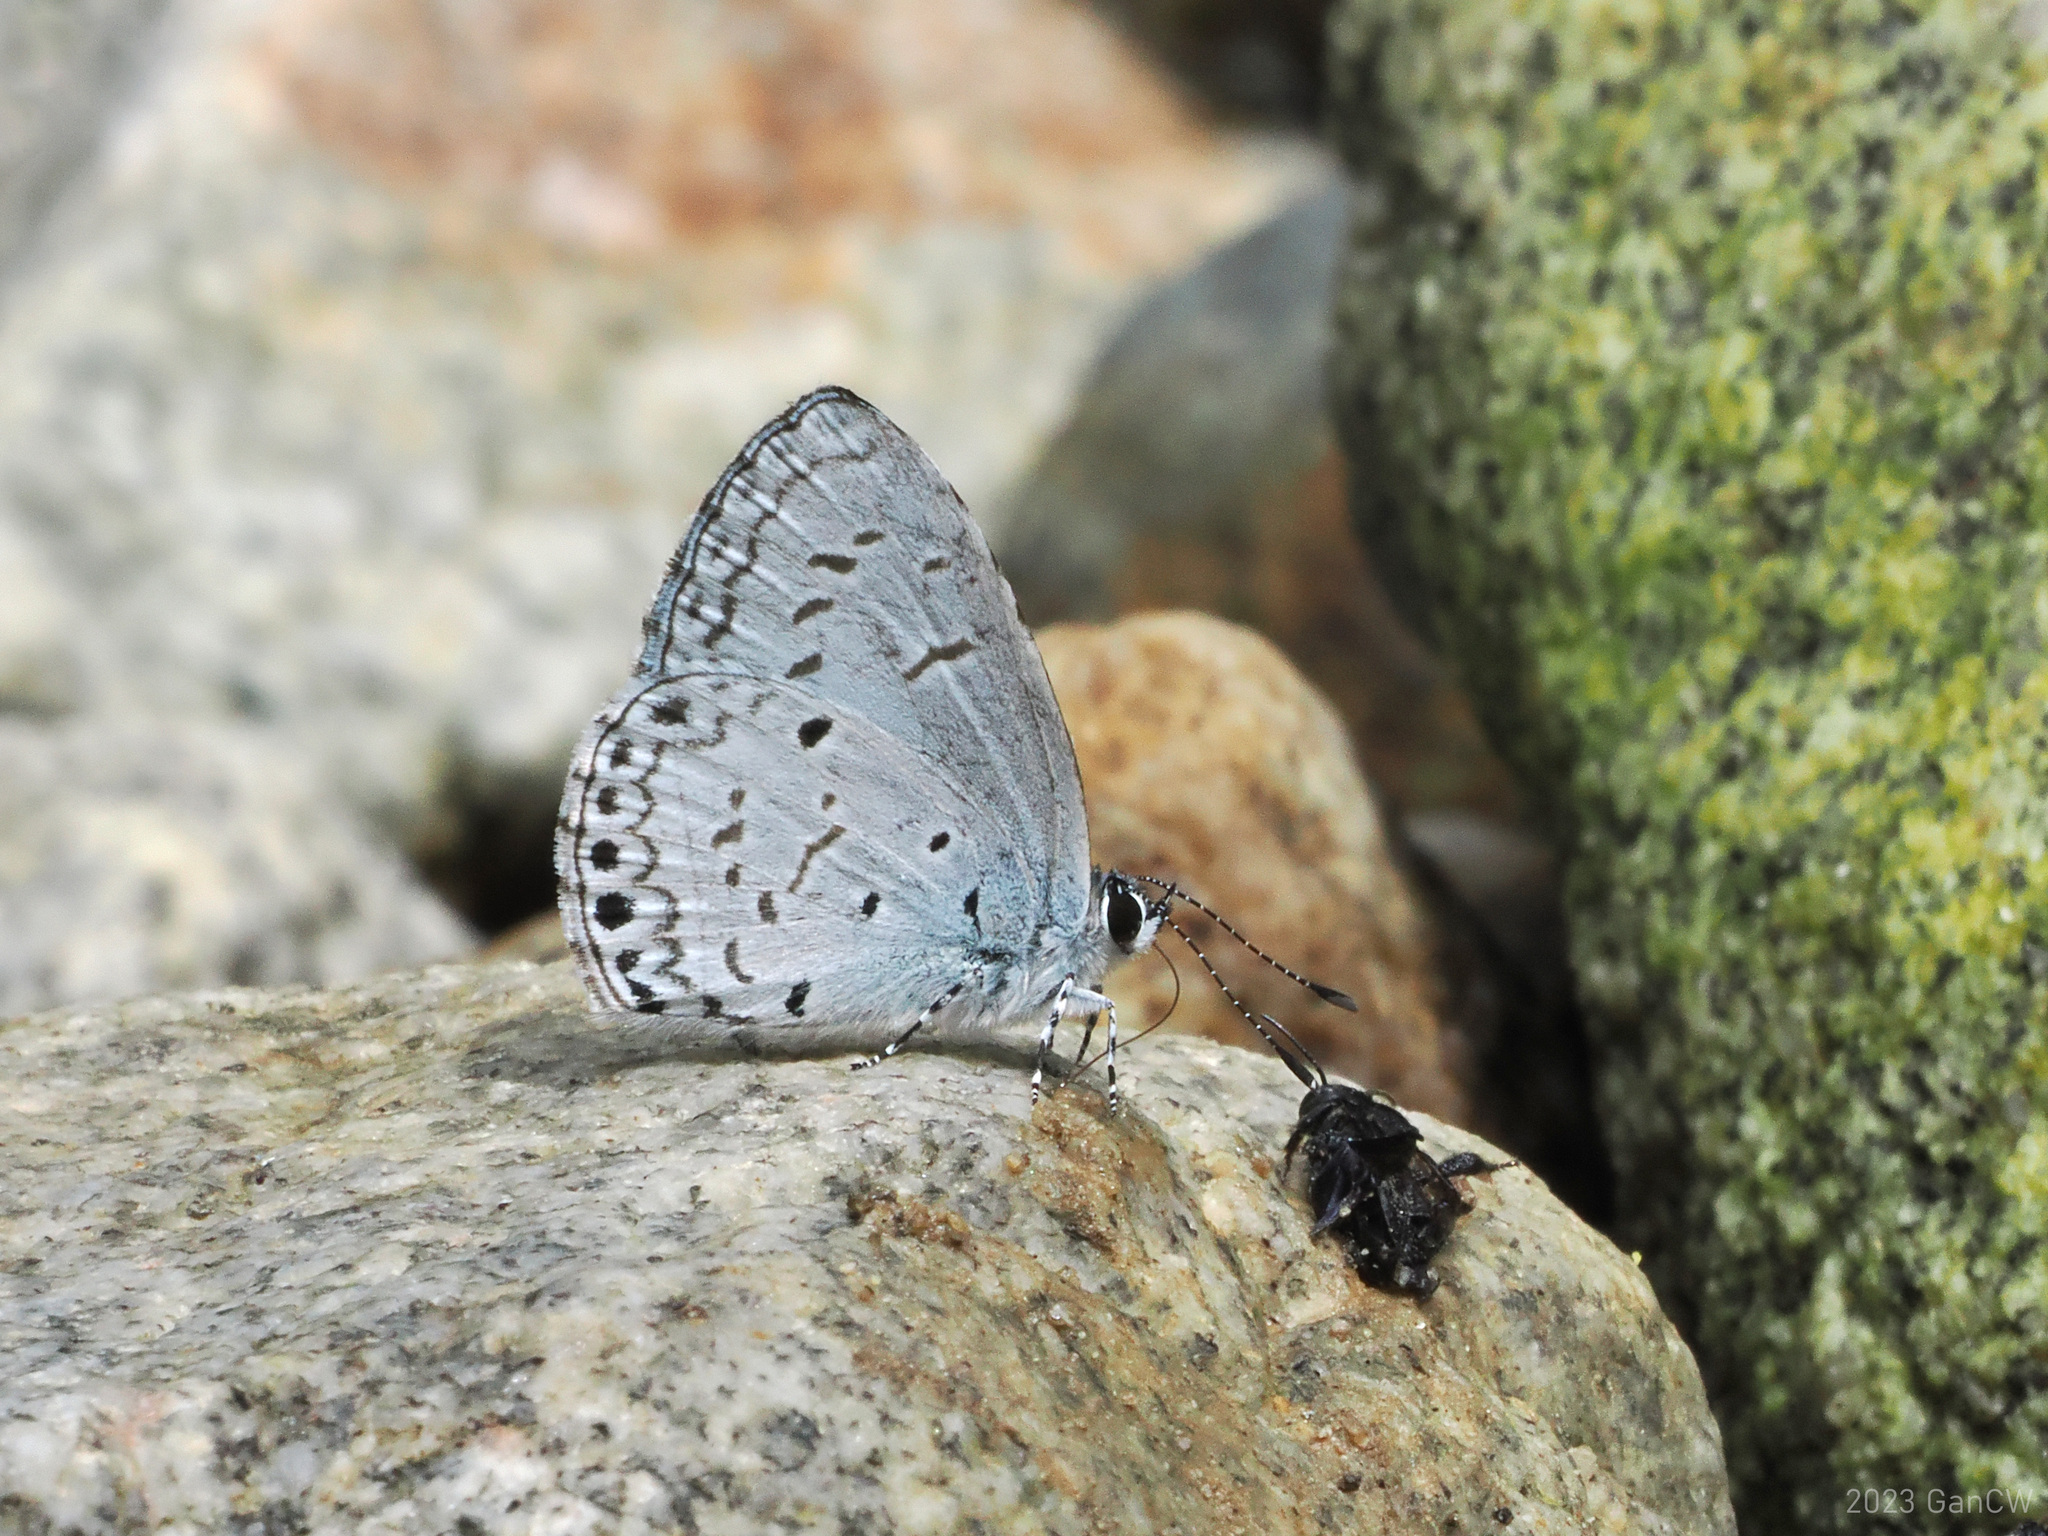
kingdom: Animalia
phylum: Arthropoda
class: Insecta
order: Lepidoptera
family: Lycaenidae
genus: Acytolepis
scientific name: Acytolepis
